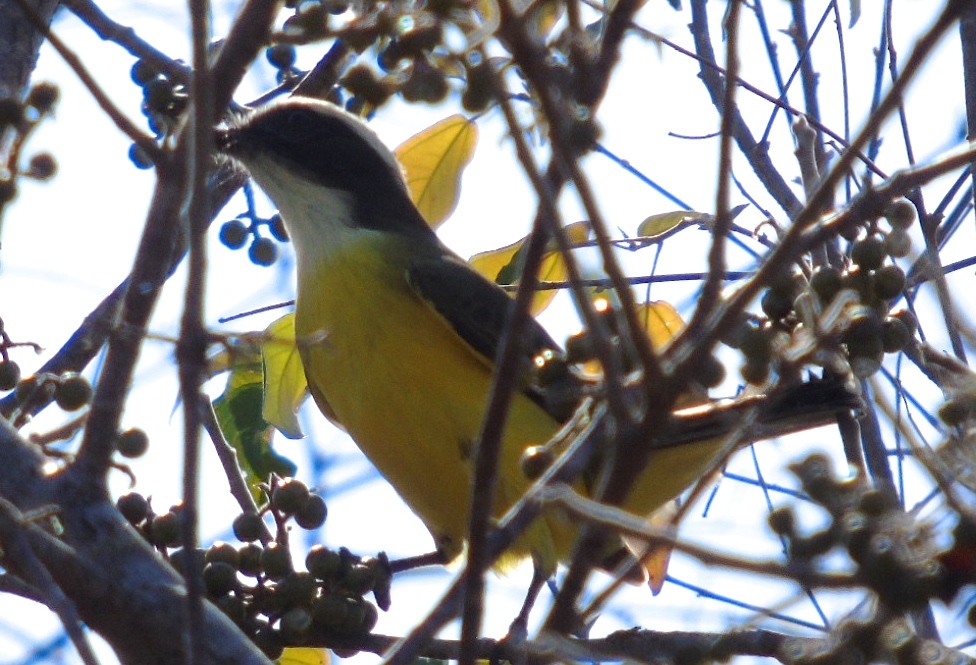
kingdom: Animalia
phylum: Chordata
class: Aves
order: Passeriformes
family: Tyrannidae
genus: Myiozetetes
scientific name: Myiozetetes similis
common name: Social flycatcher
